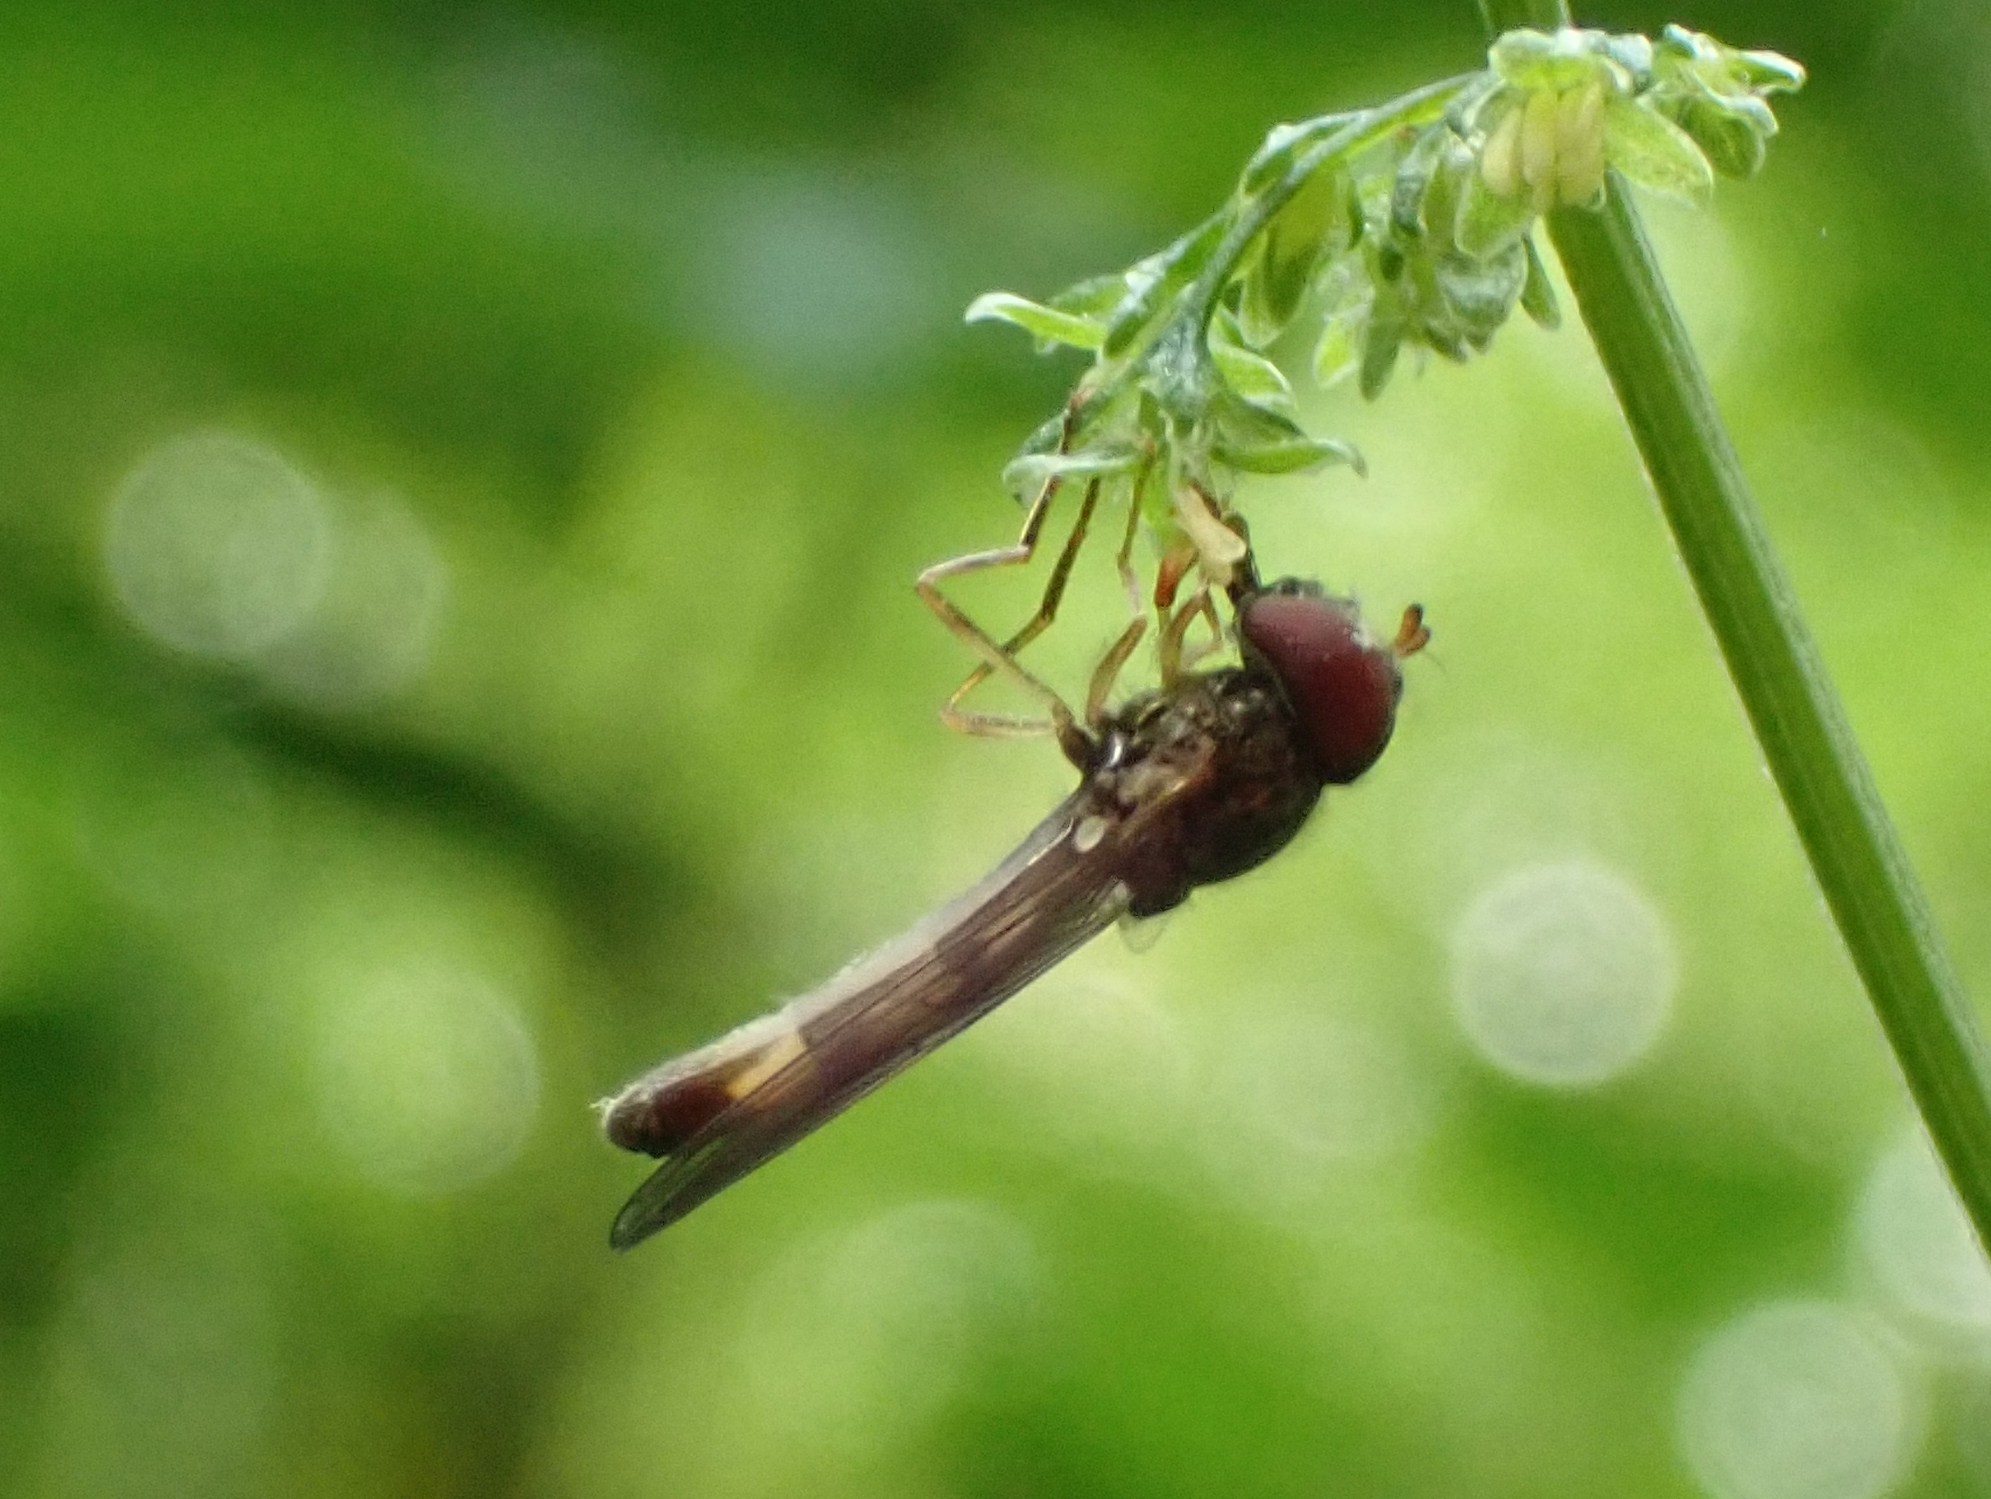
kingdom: Animalia
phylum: Arthropoda
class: Insecta
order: Diptera
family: Syrphidae
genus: Melanostoma
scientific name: Melanostoma scalare
